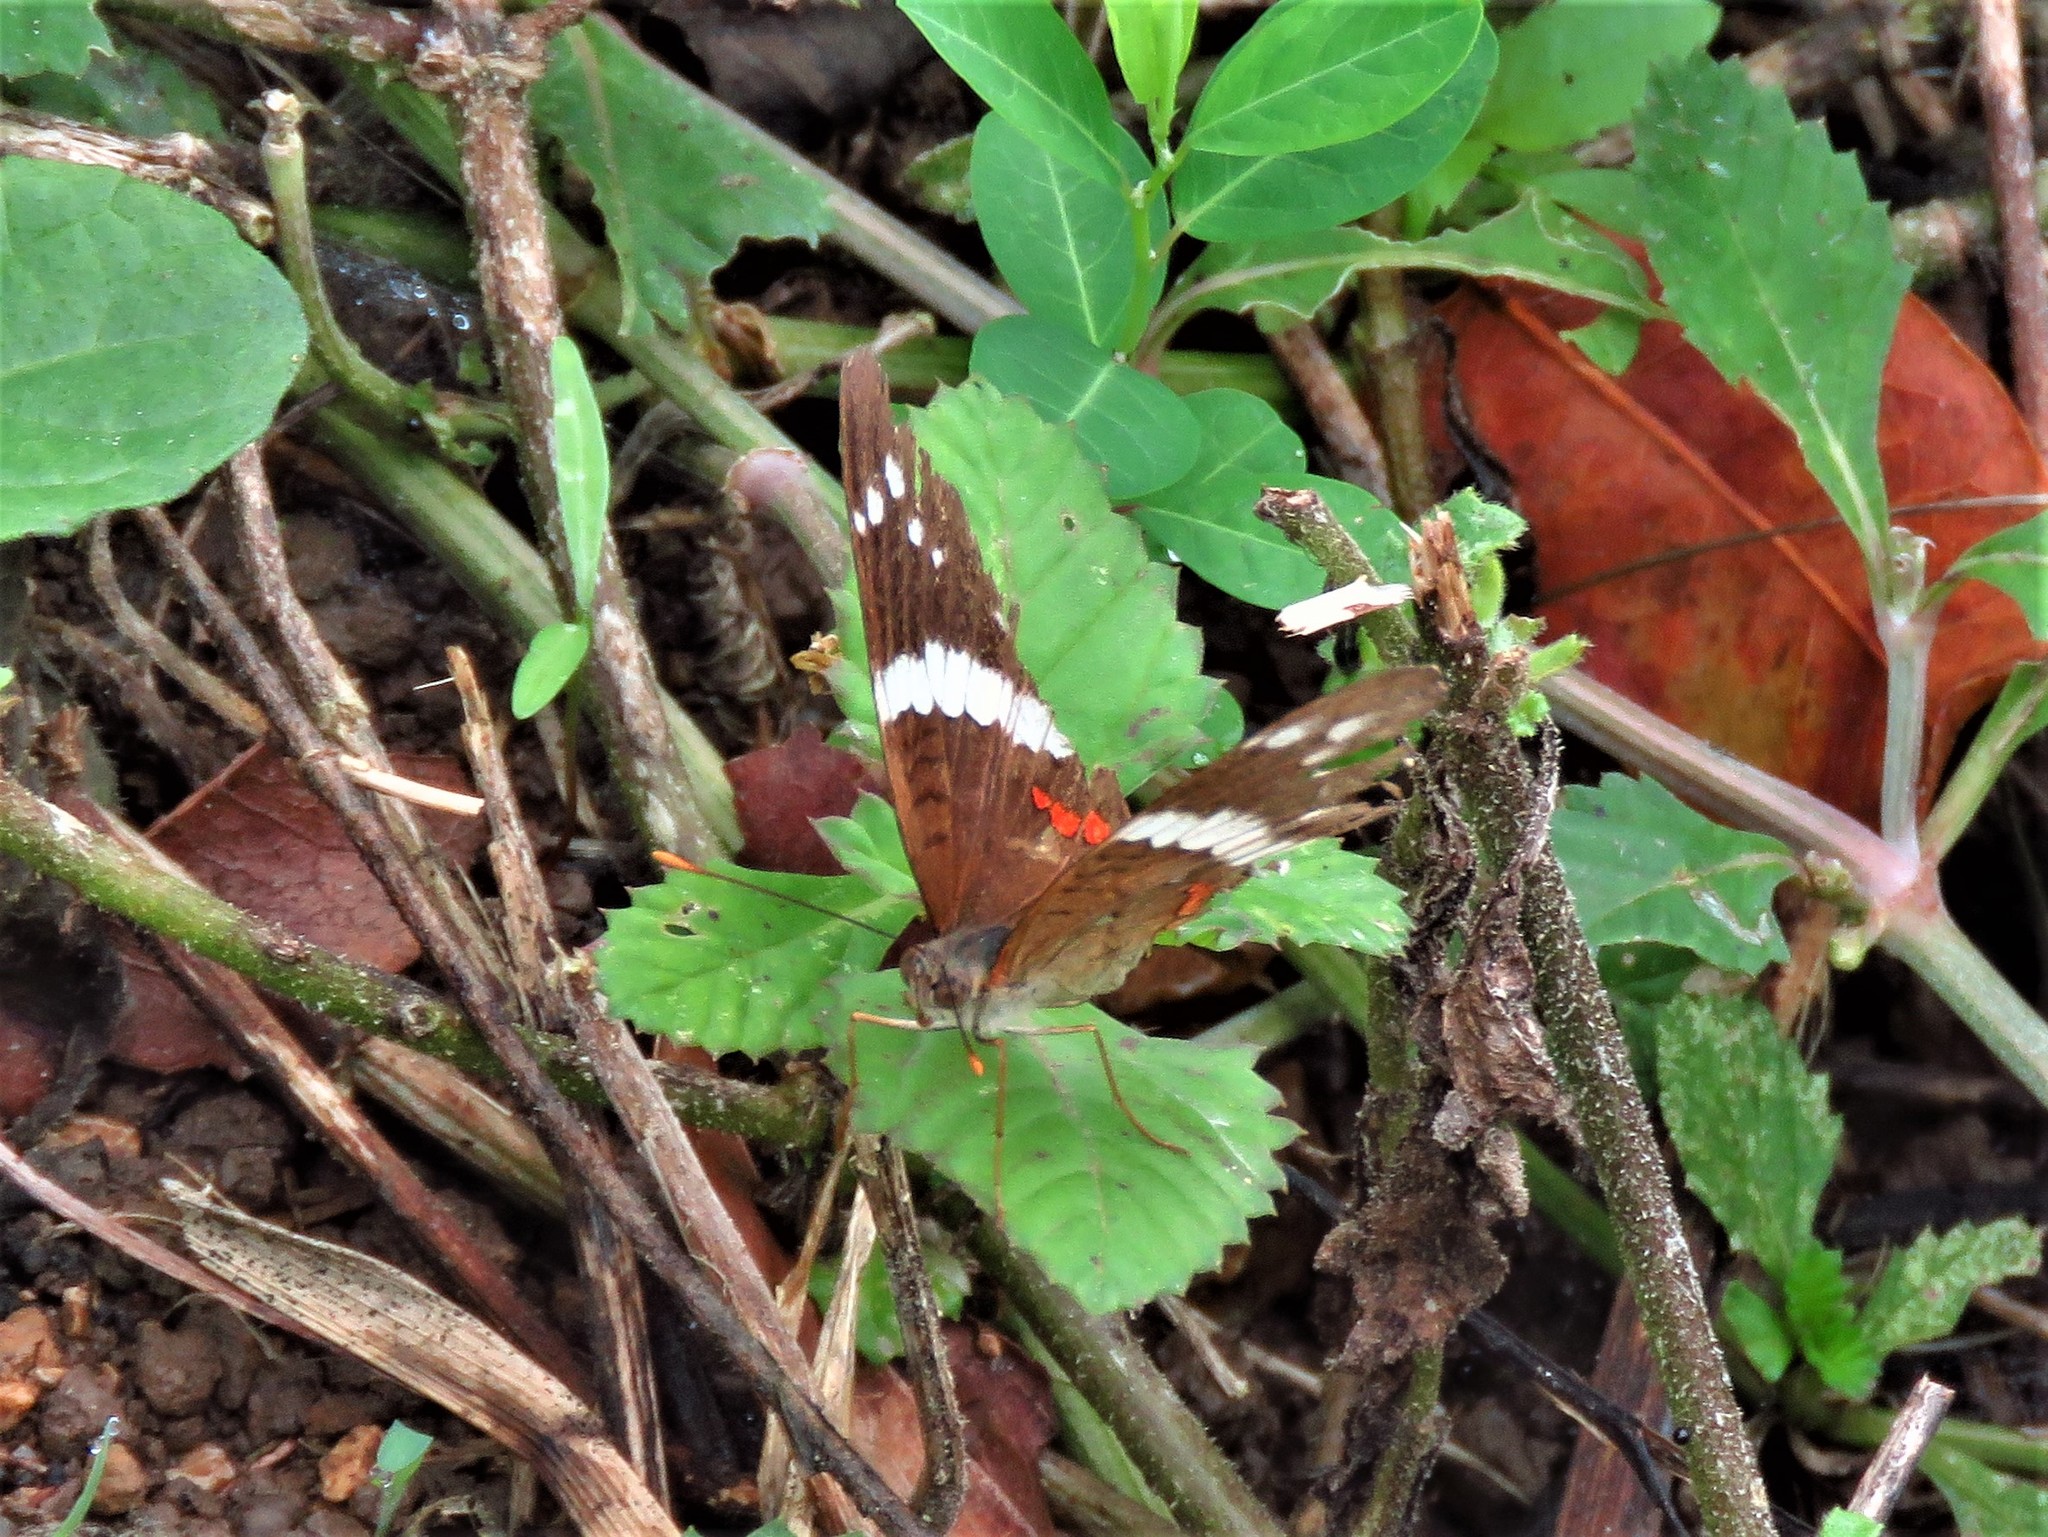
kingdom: Animalia
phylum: Arthropoda
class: Insecta
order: Lepidoptera
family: Nymphalidae
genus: Anartia
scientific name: Anartia fatima
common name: Banded peacock
